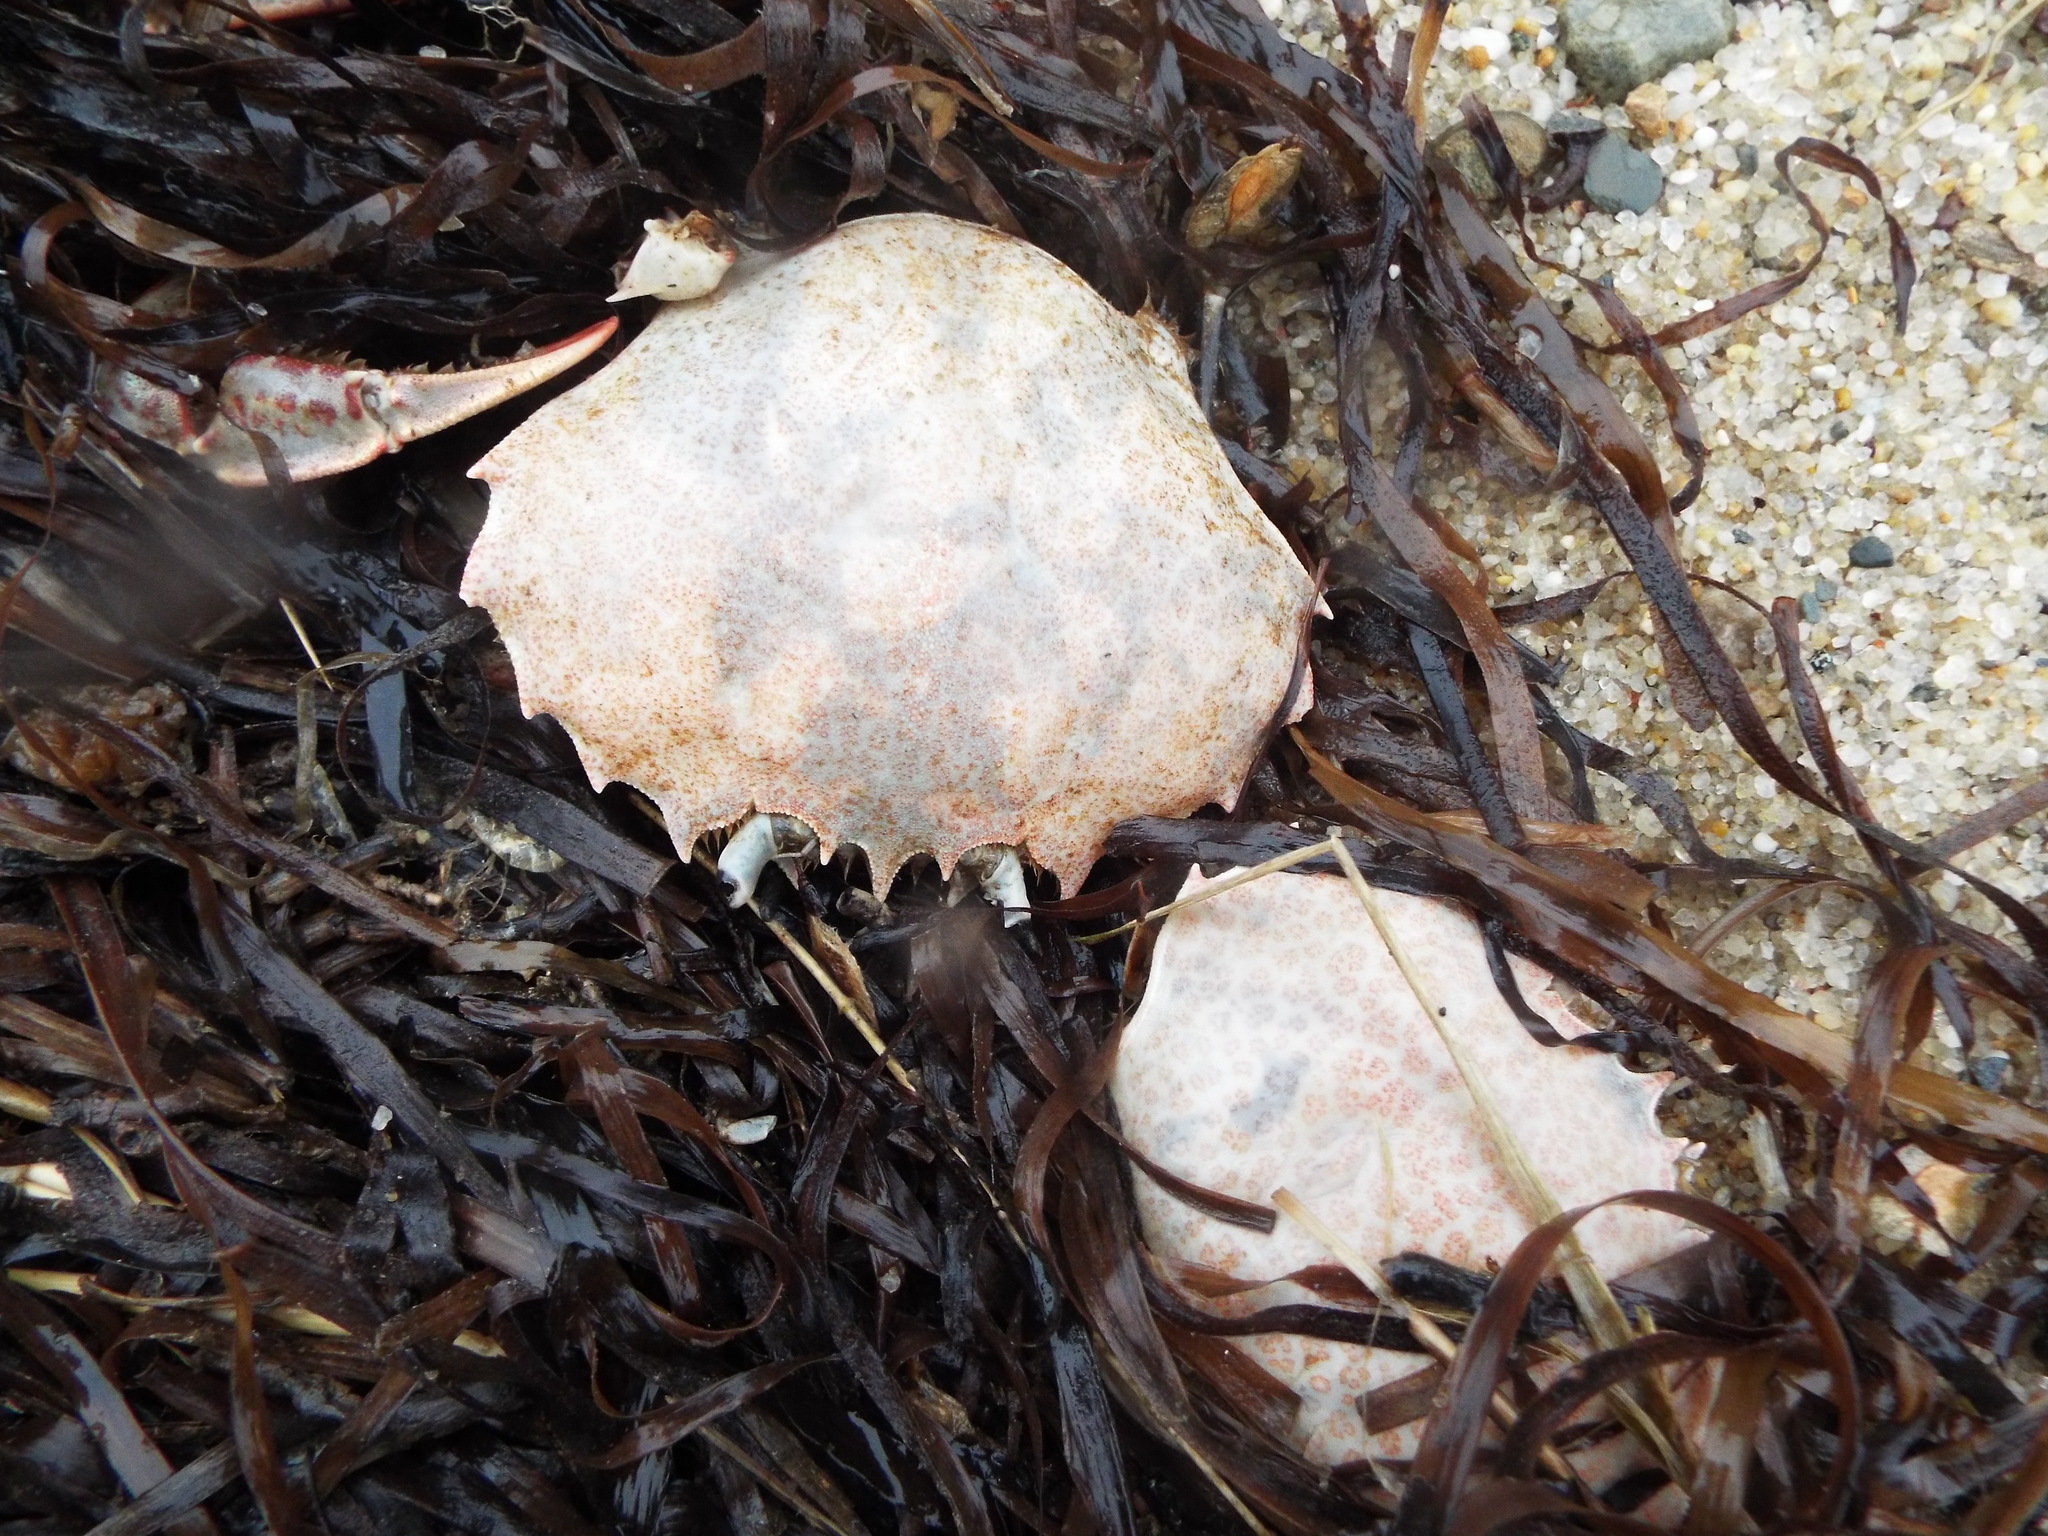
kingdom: Animalia
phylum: Arthropoda
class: Malacostraca
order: Decapoda
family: Ovalipidae
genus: Ovalipes
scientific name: Ovalipes ocellatus
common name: Lady crab
